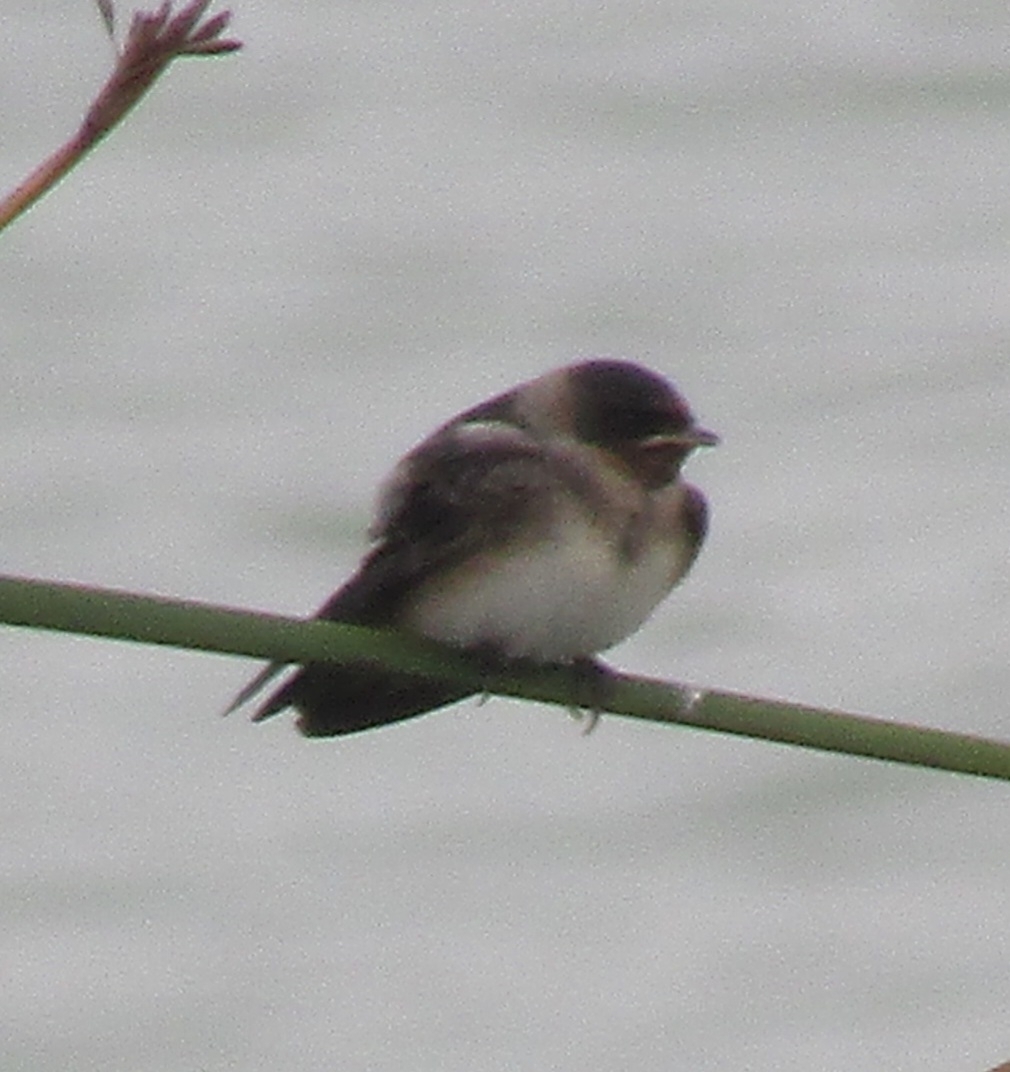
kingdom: Animalia
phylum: Chordata
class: Aves
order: Passeriformes
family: Hirundinidae
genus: Petrochelidon
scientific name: Petrochelidon pyrrhonota
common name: American cliff swallow
